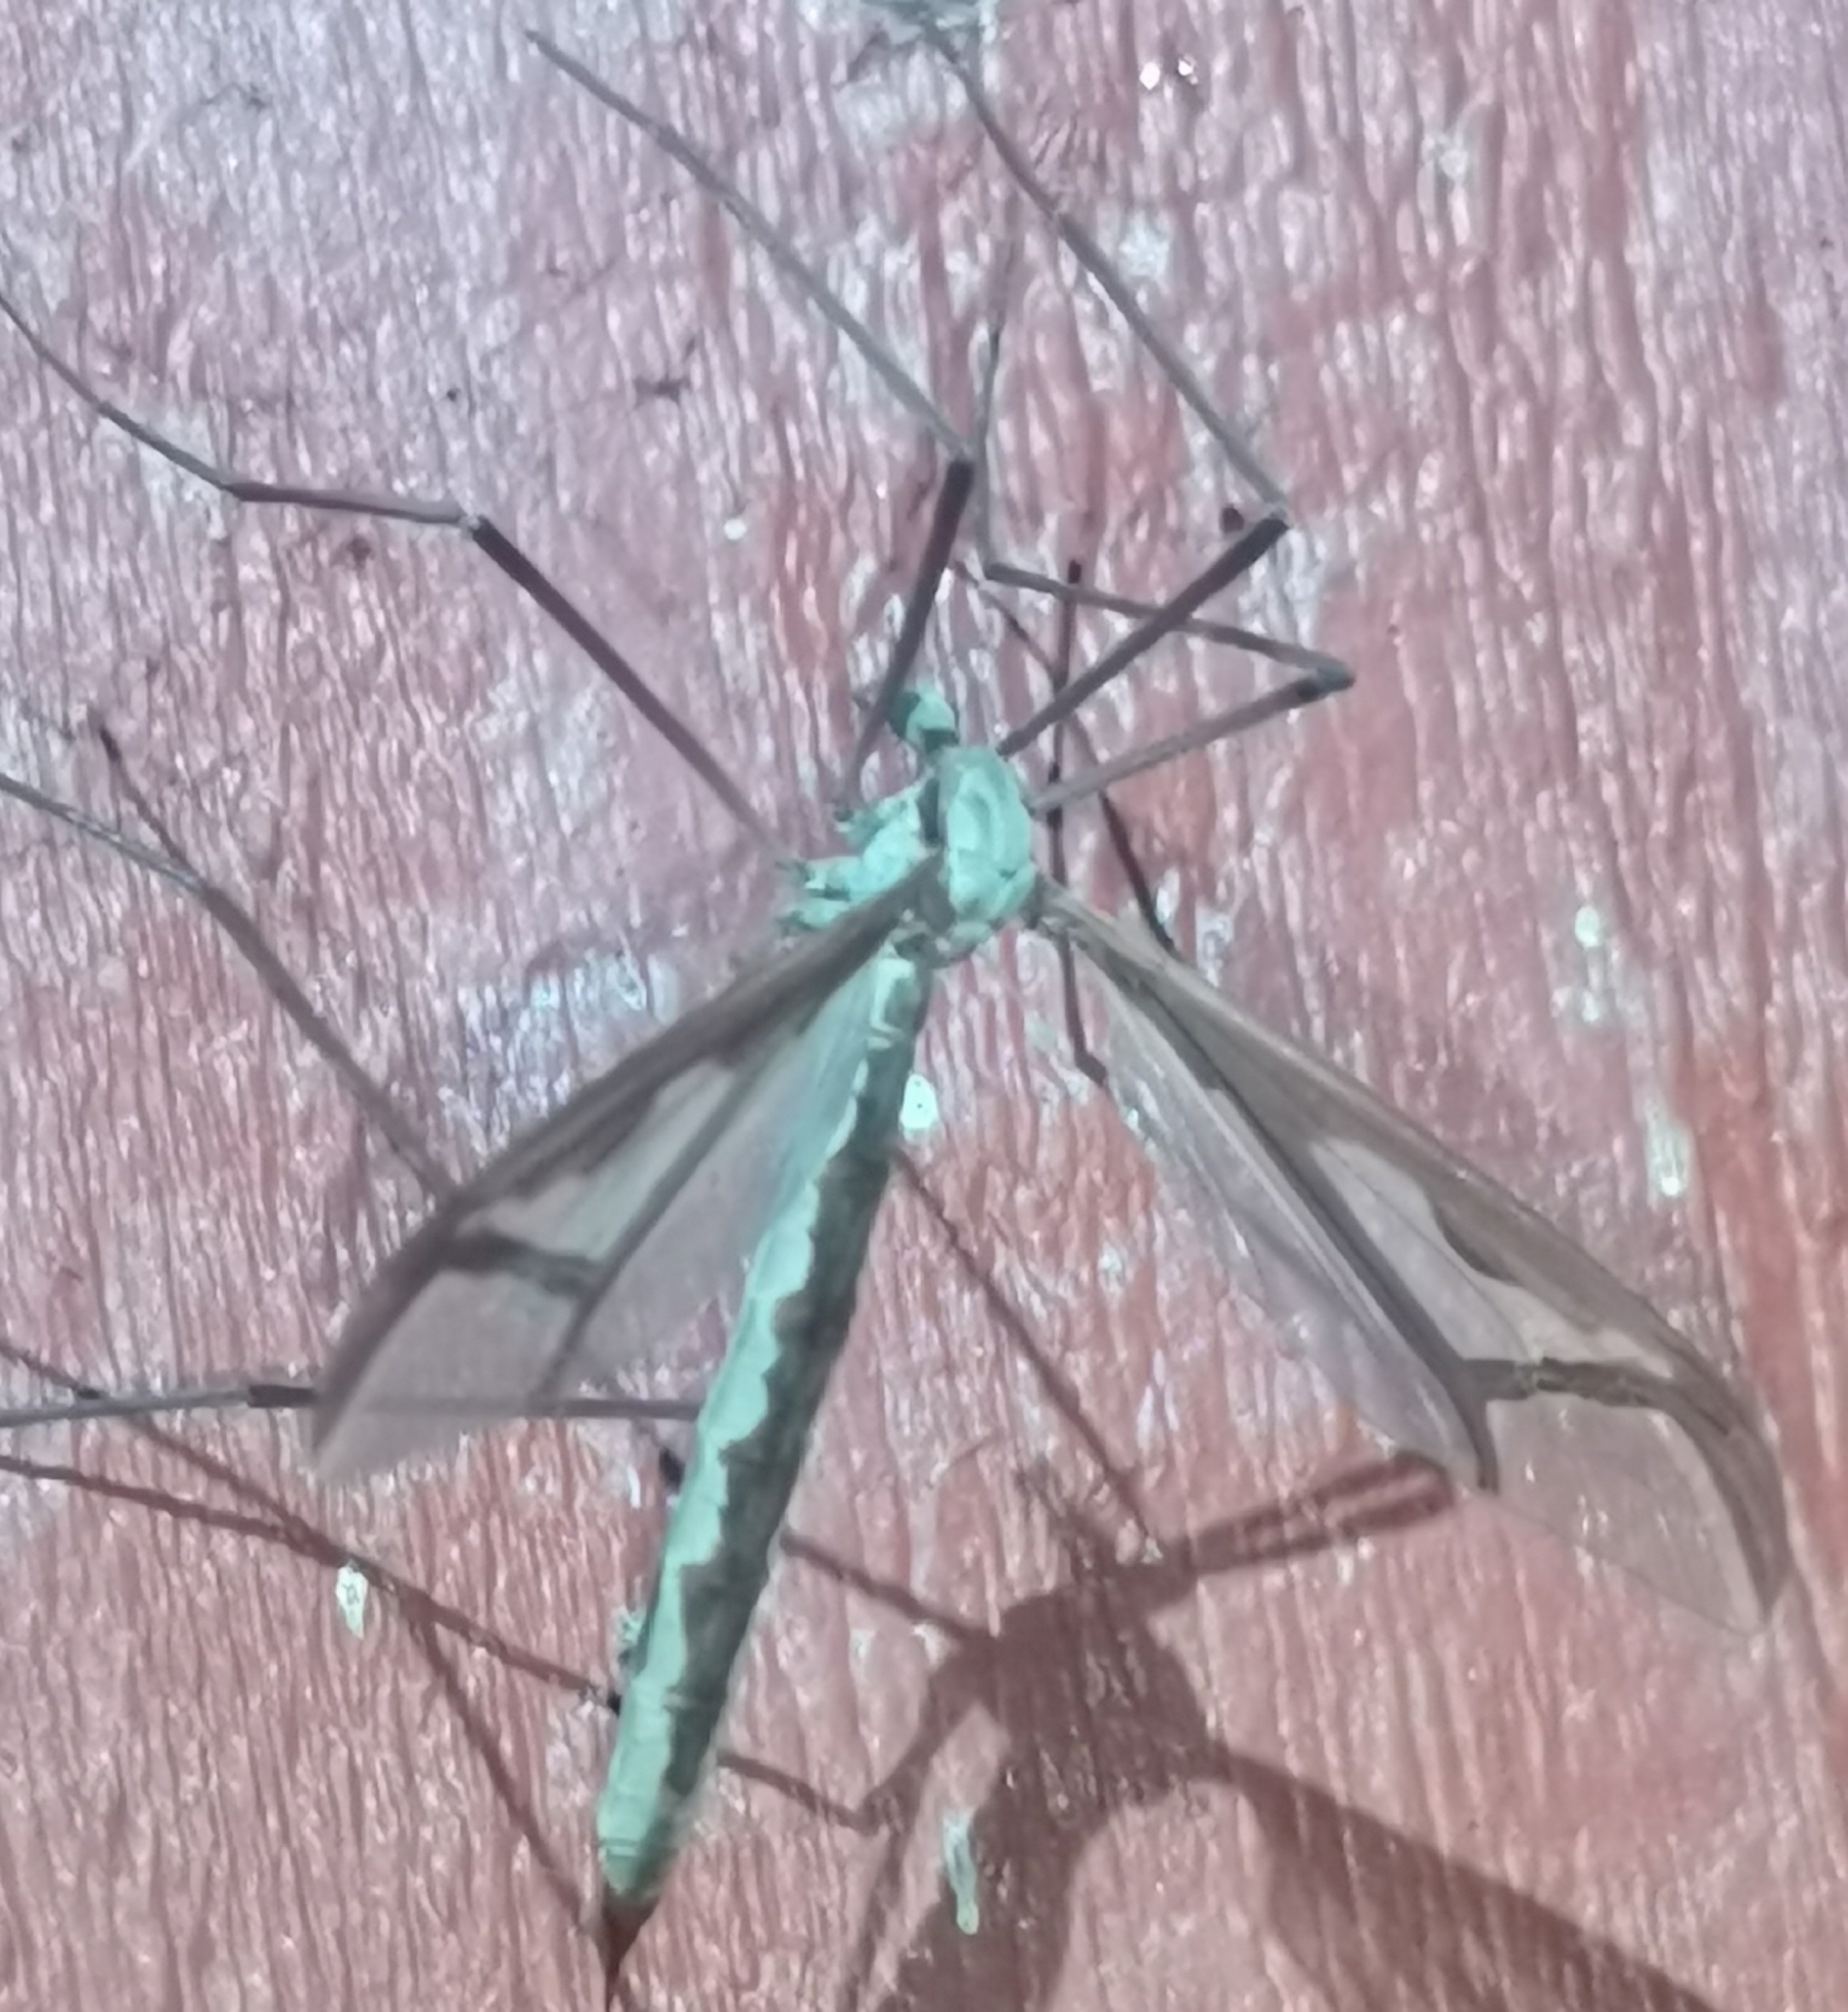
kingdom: Animalia
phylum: Arthropoda
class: Insecta
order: Diptera
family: Pediciidae
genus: Pedicia
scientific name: Pedicia rivosa
